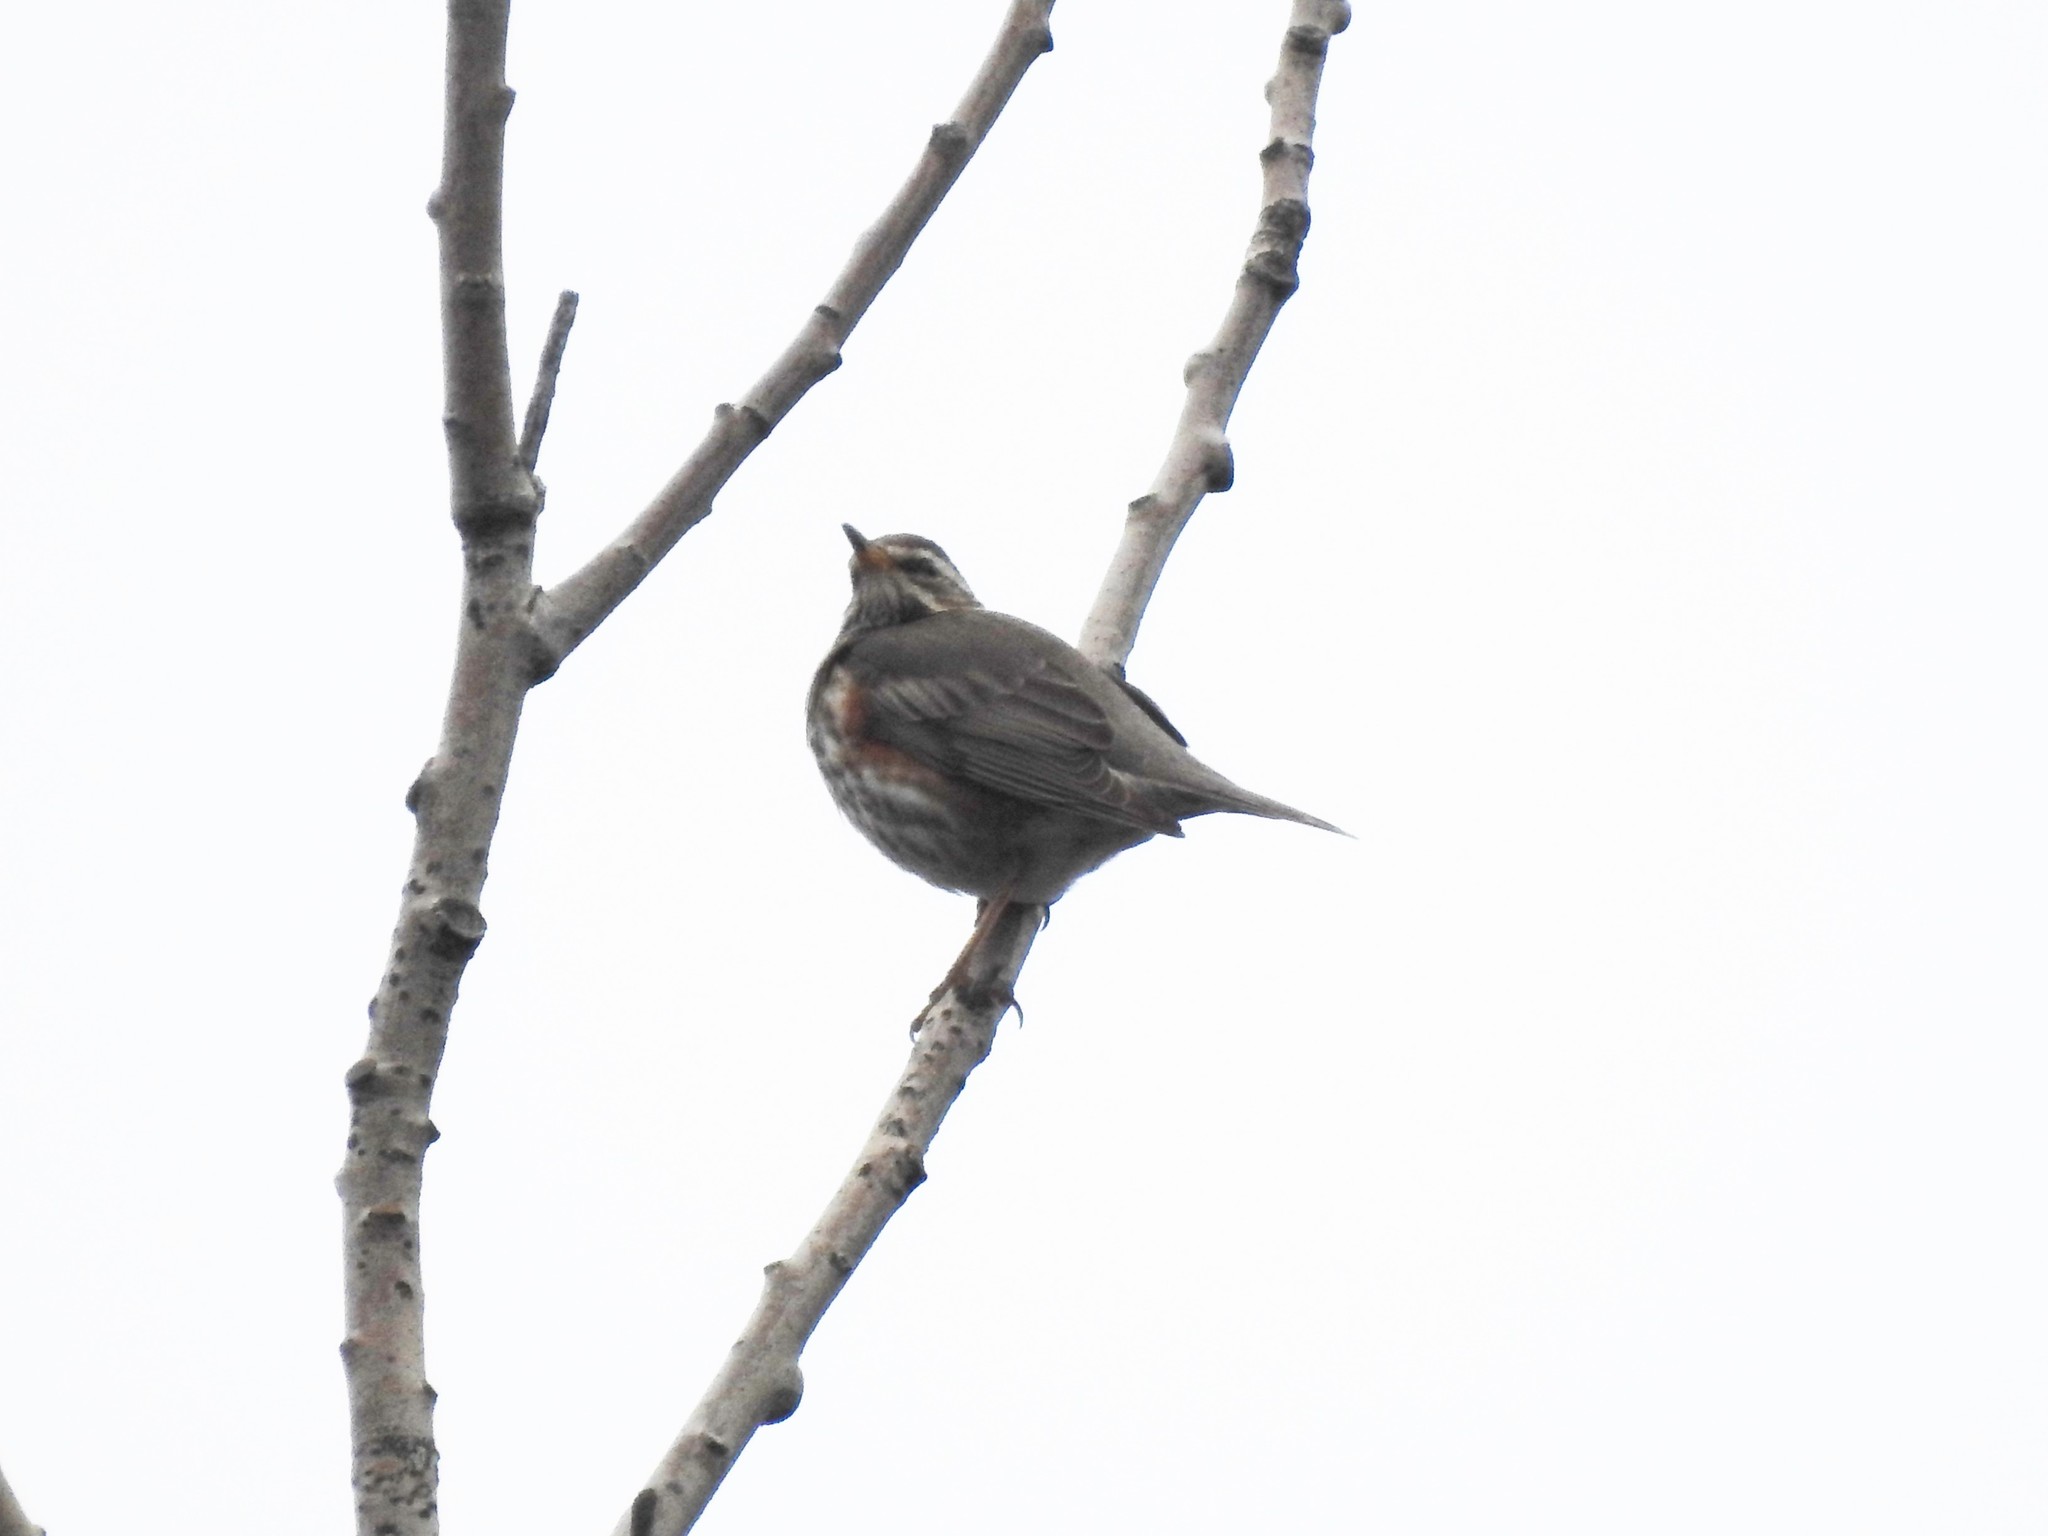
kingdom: Animalia
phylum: Chordata
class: Aves
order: Passeriformes
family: Turdidae
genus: Turdus
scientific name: Turdus iliacus
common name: Redwing
